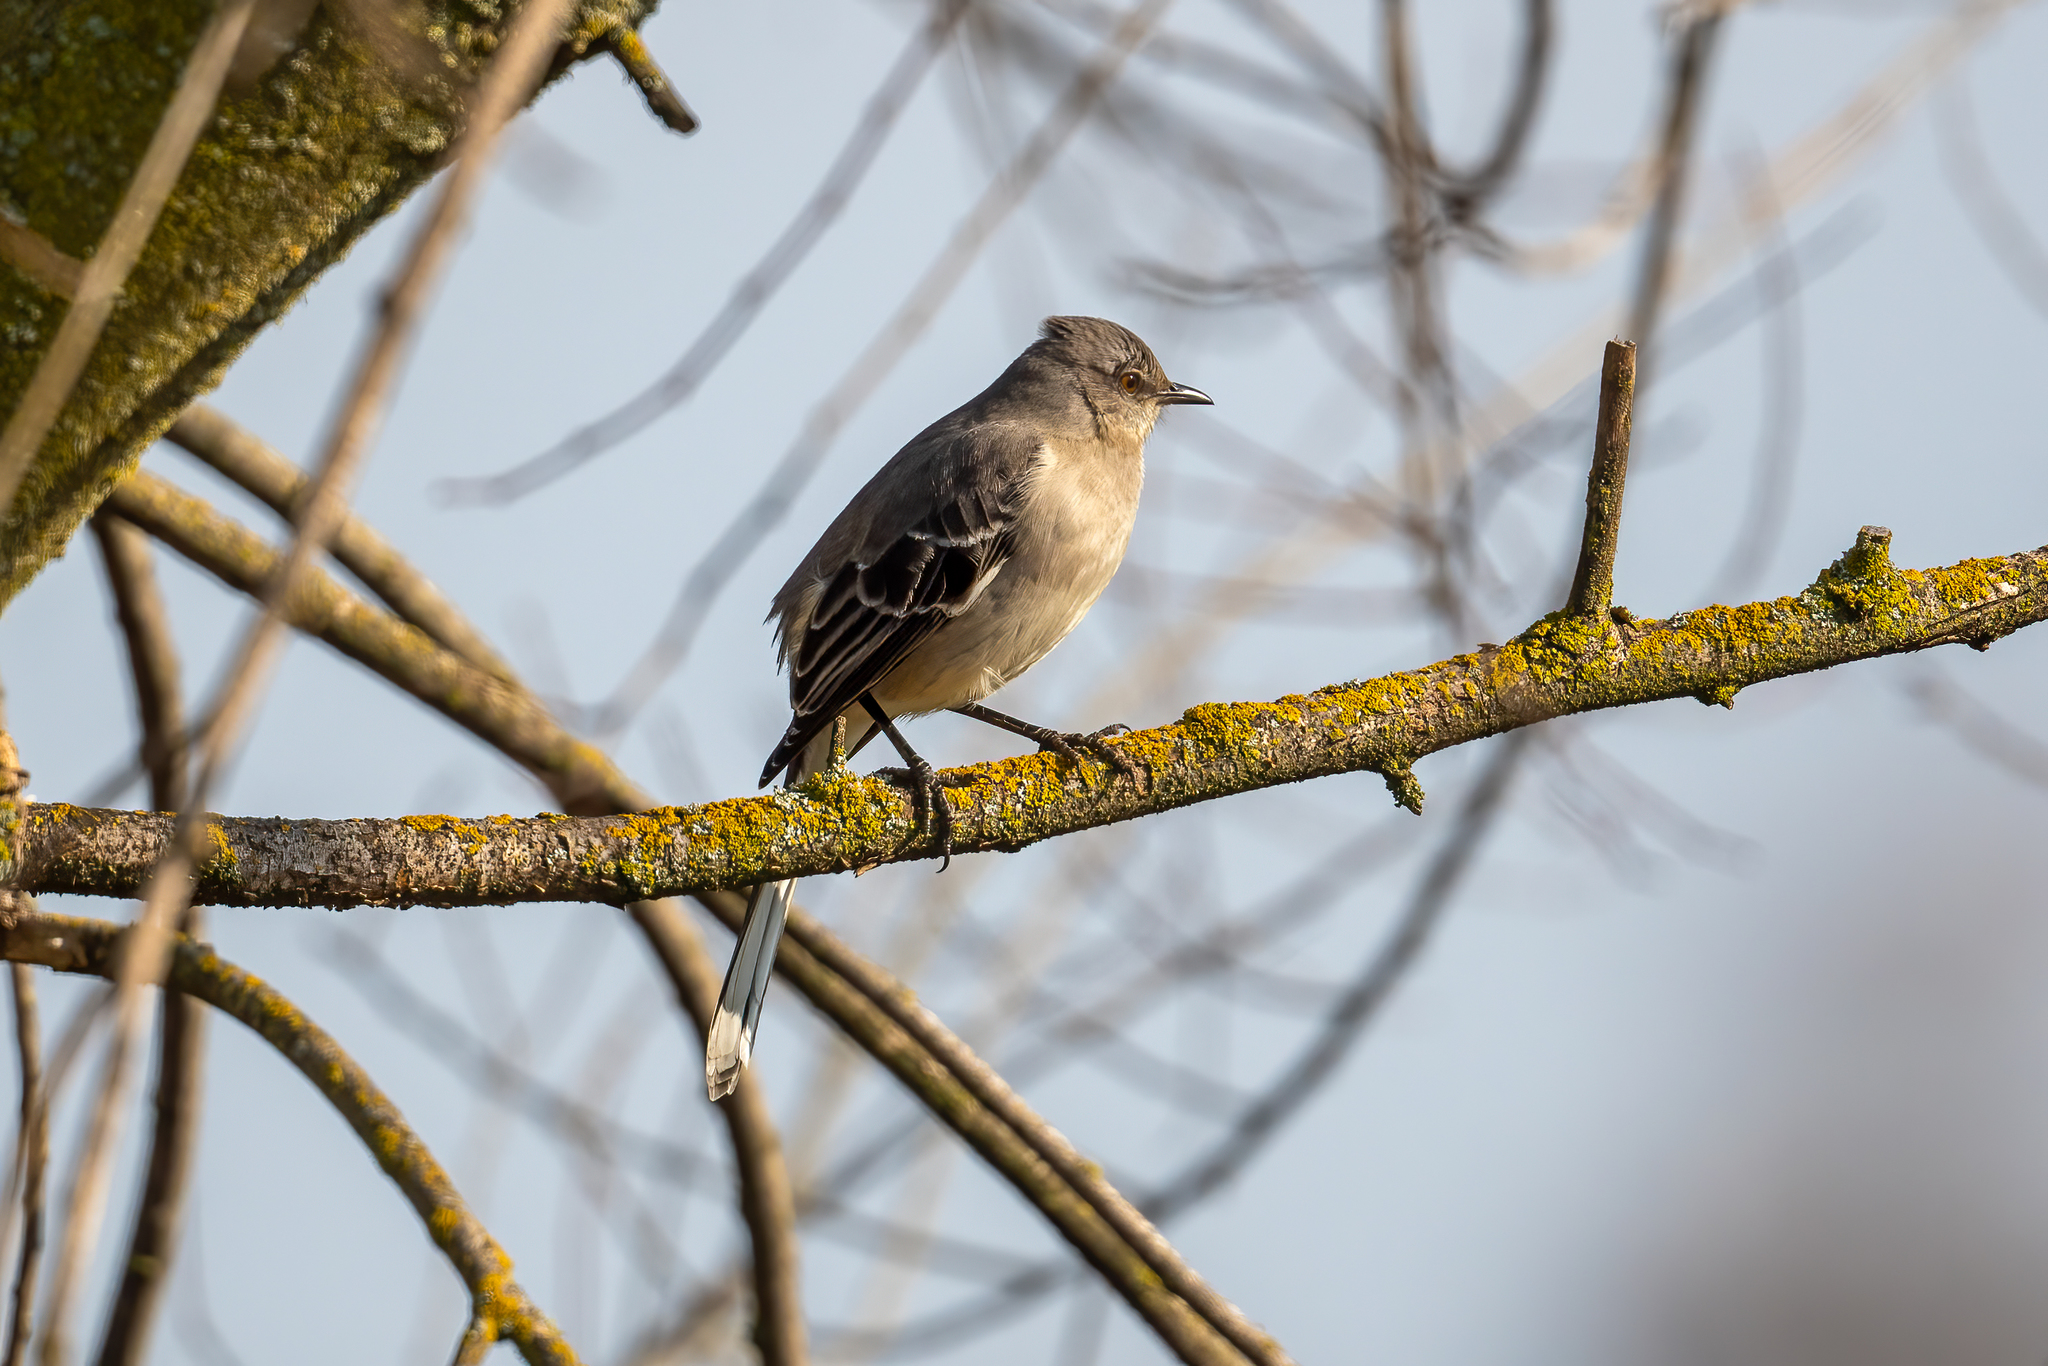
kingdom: Animalia
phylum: Chordata
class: Aves
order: Passeriformes
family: Mimidae
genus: Mimus
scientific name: Mimus polyglottos
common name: Northern mockingbird
